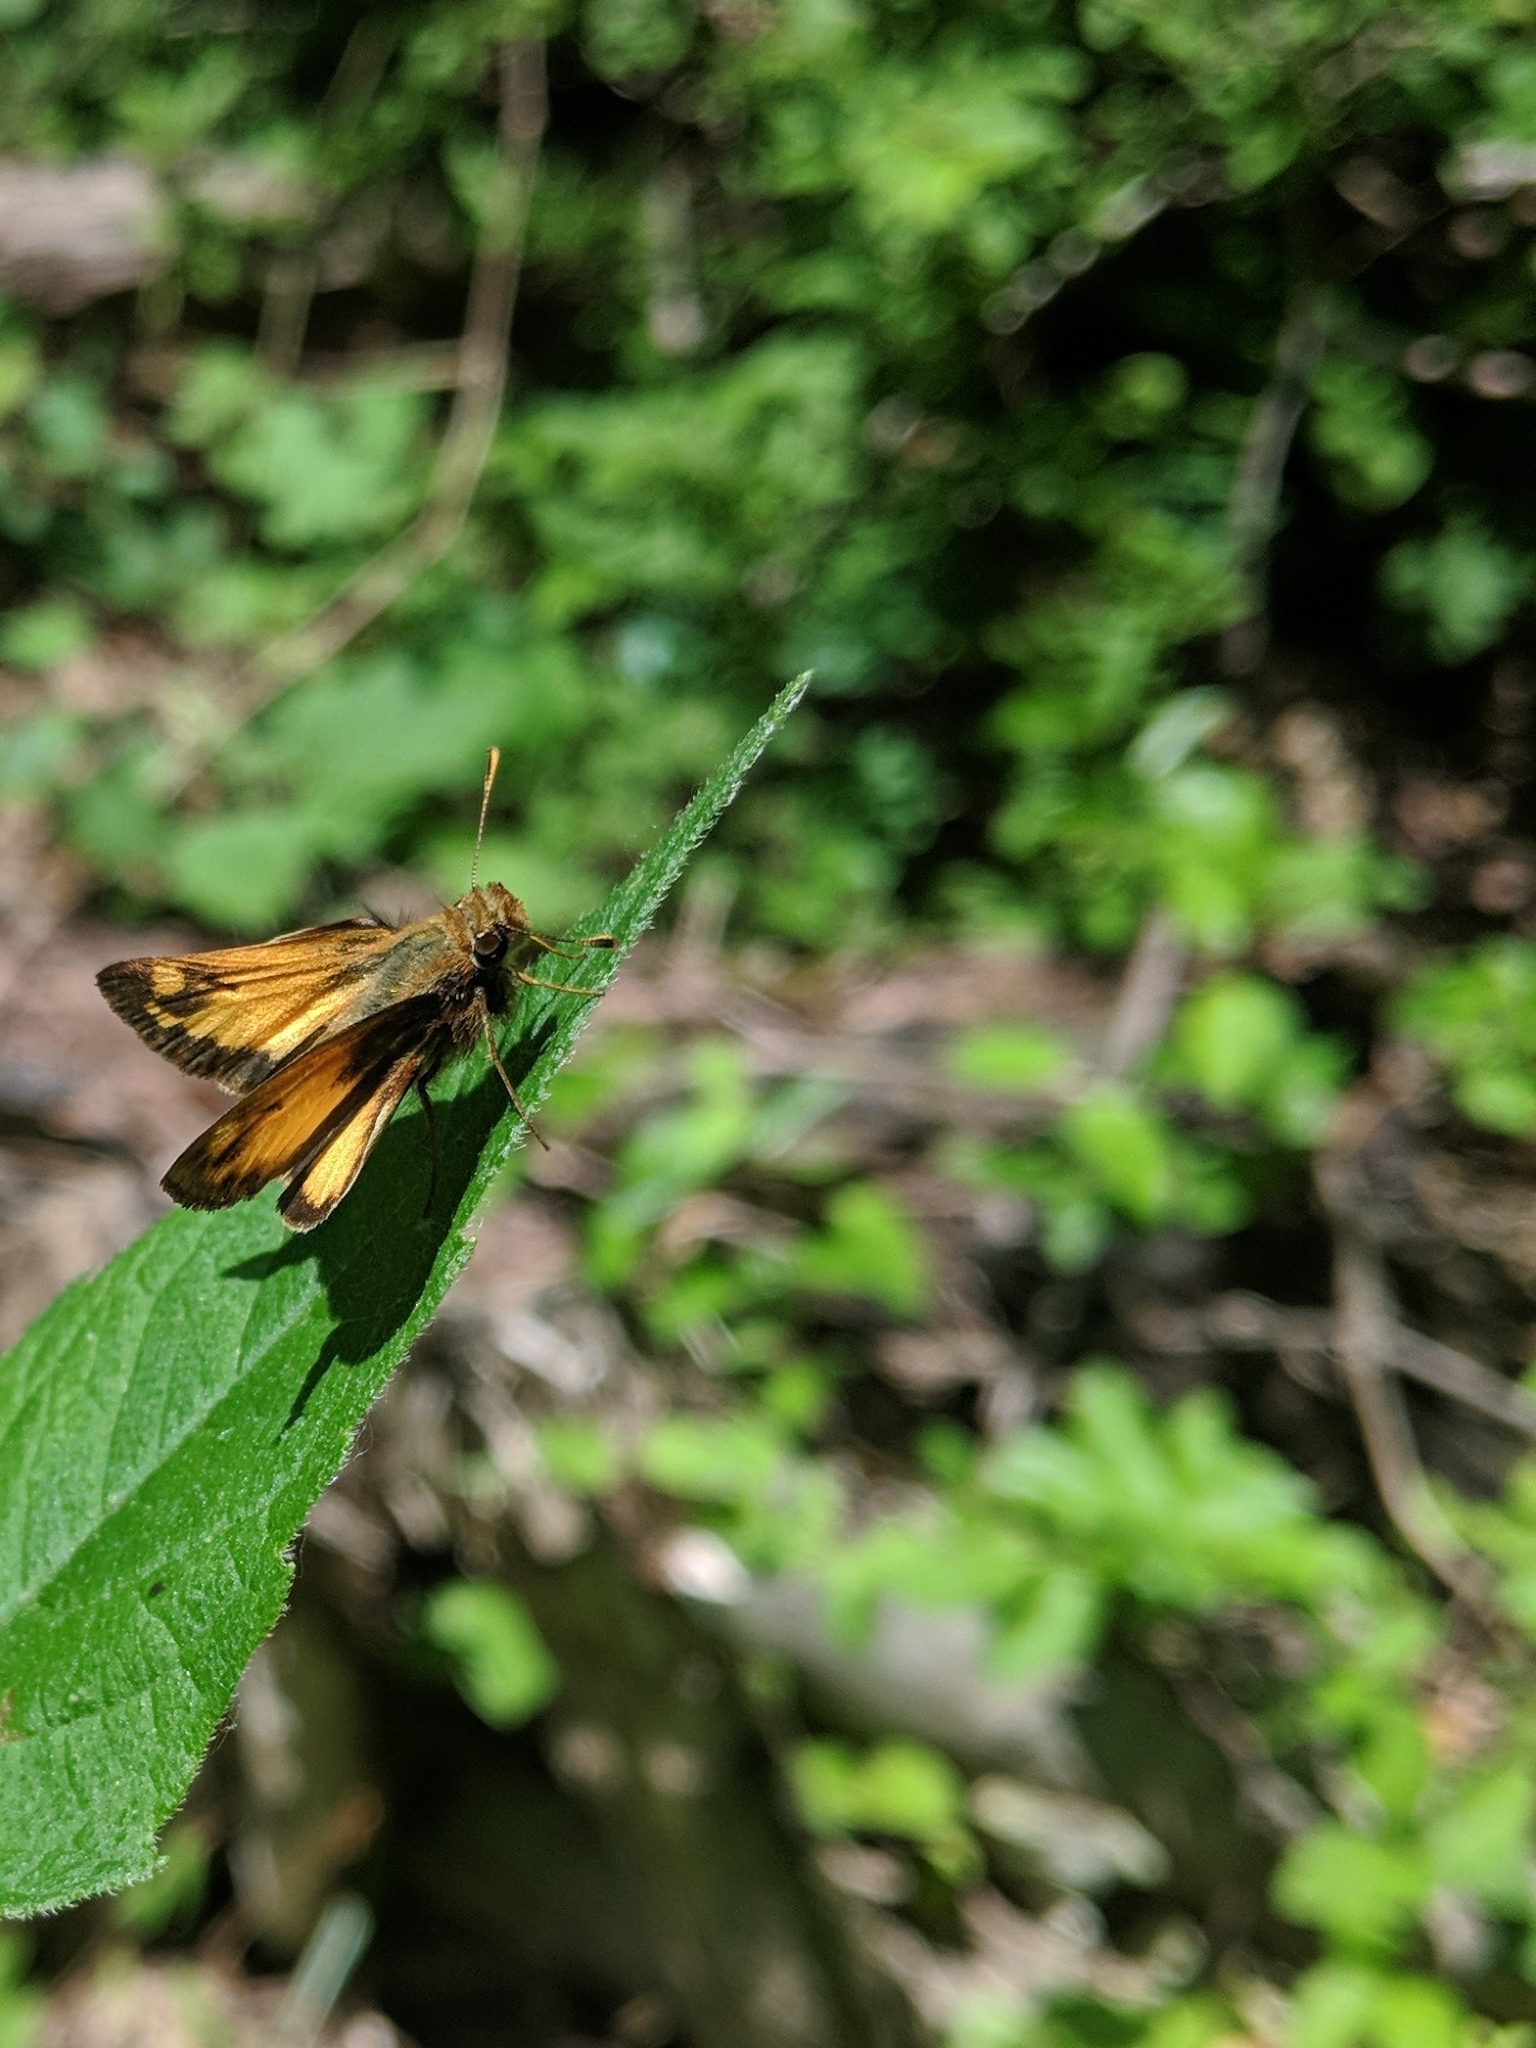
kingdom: Animalia
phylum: Arthropoda
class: Insecta
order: Lepidoptera
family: Hesperiidae
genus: Lon
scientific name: Lon zabulon
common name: Zabulon skipper
